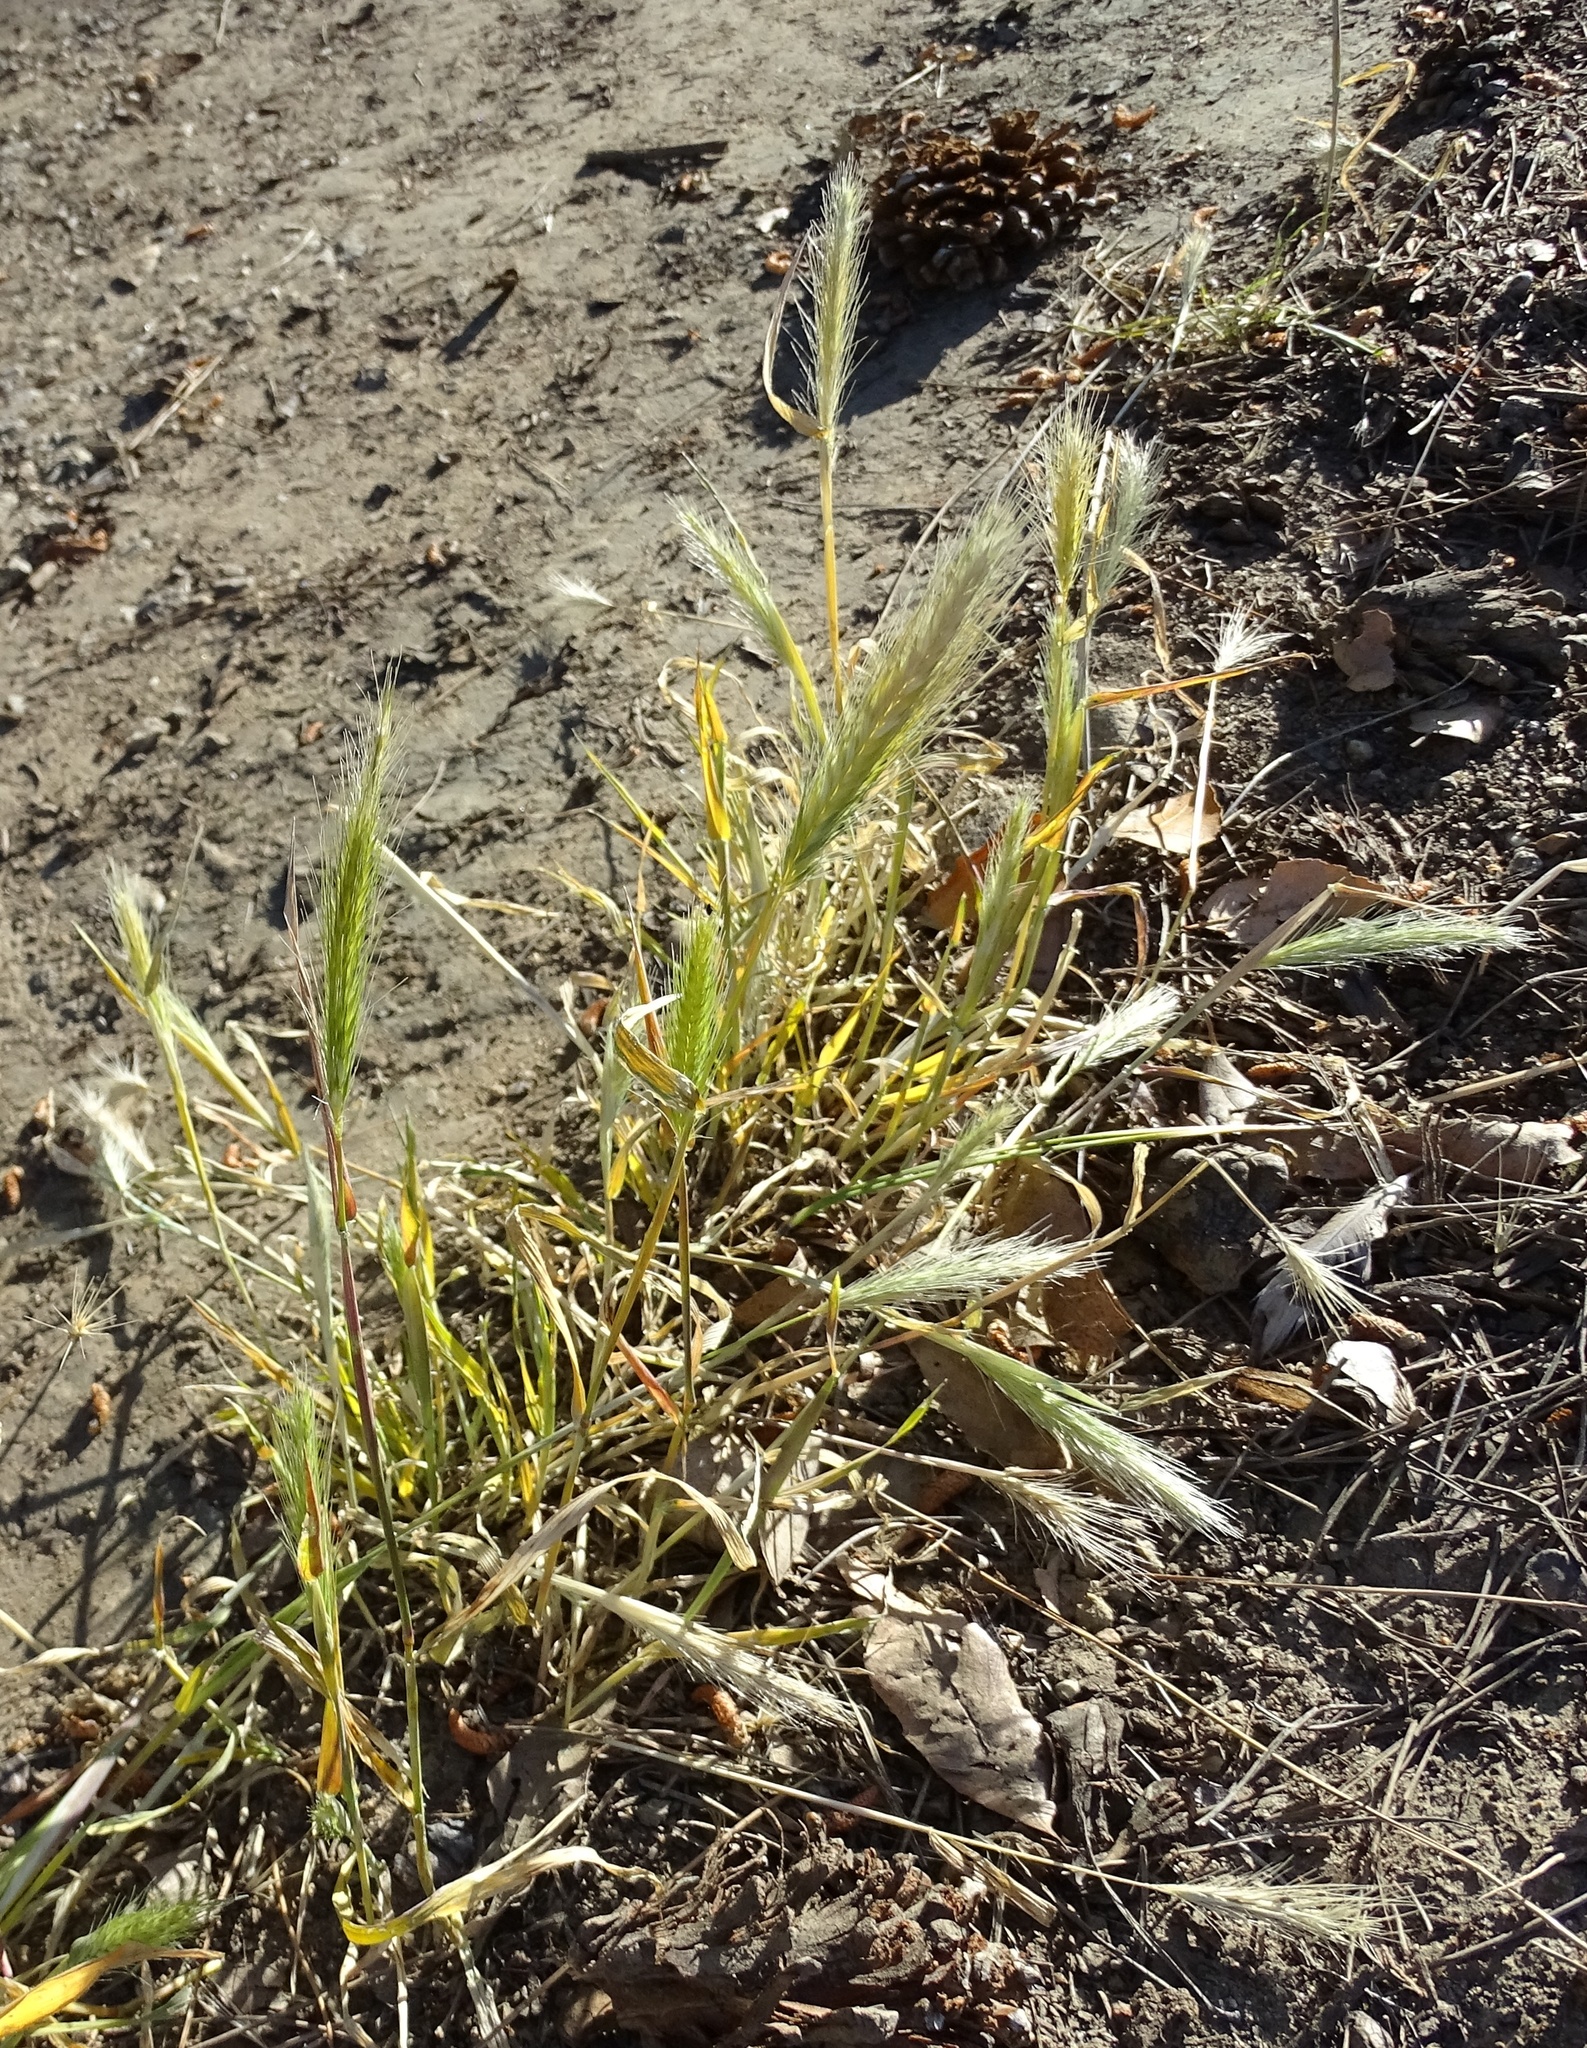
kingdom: Plantae
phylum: Tracheophyta
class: Liliopsida
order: Poales
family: Poaceae
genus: Hordeum
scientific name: Hordeum murinum
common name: Wall barley
